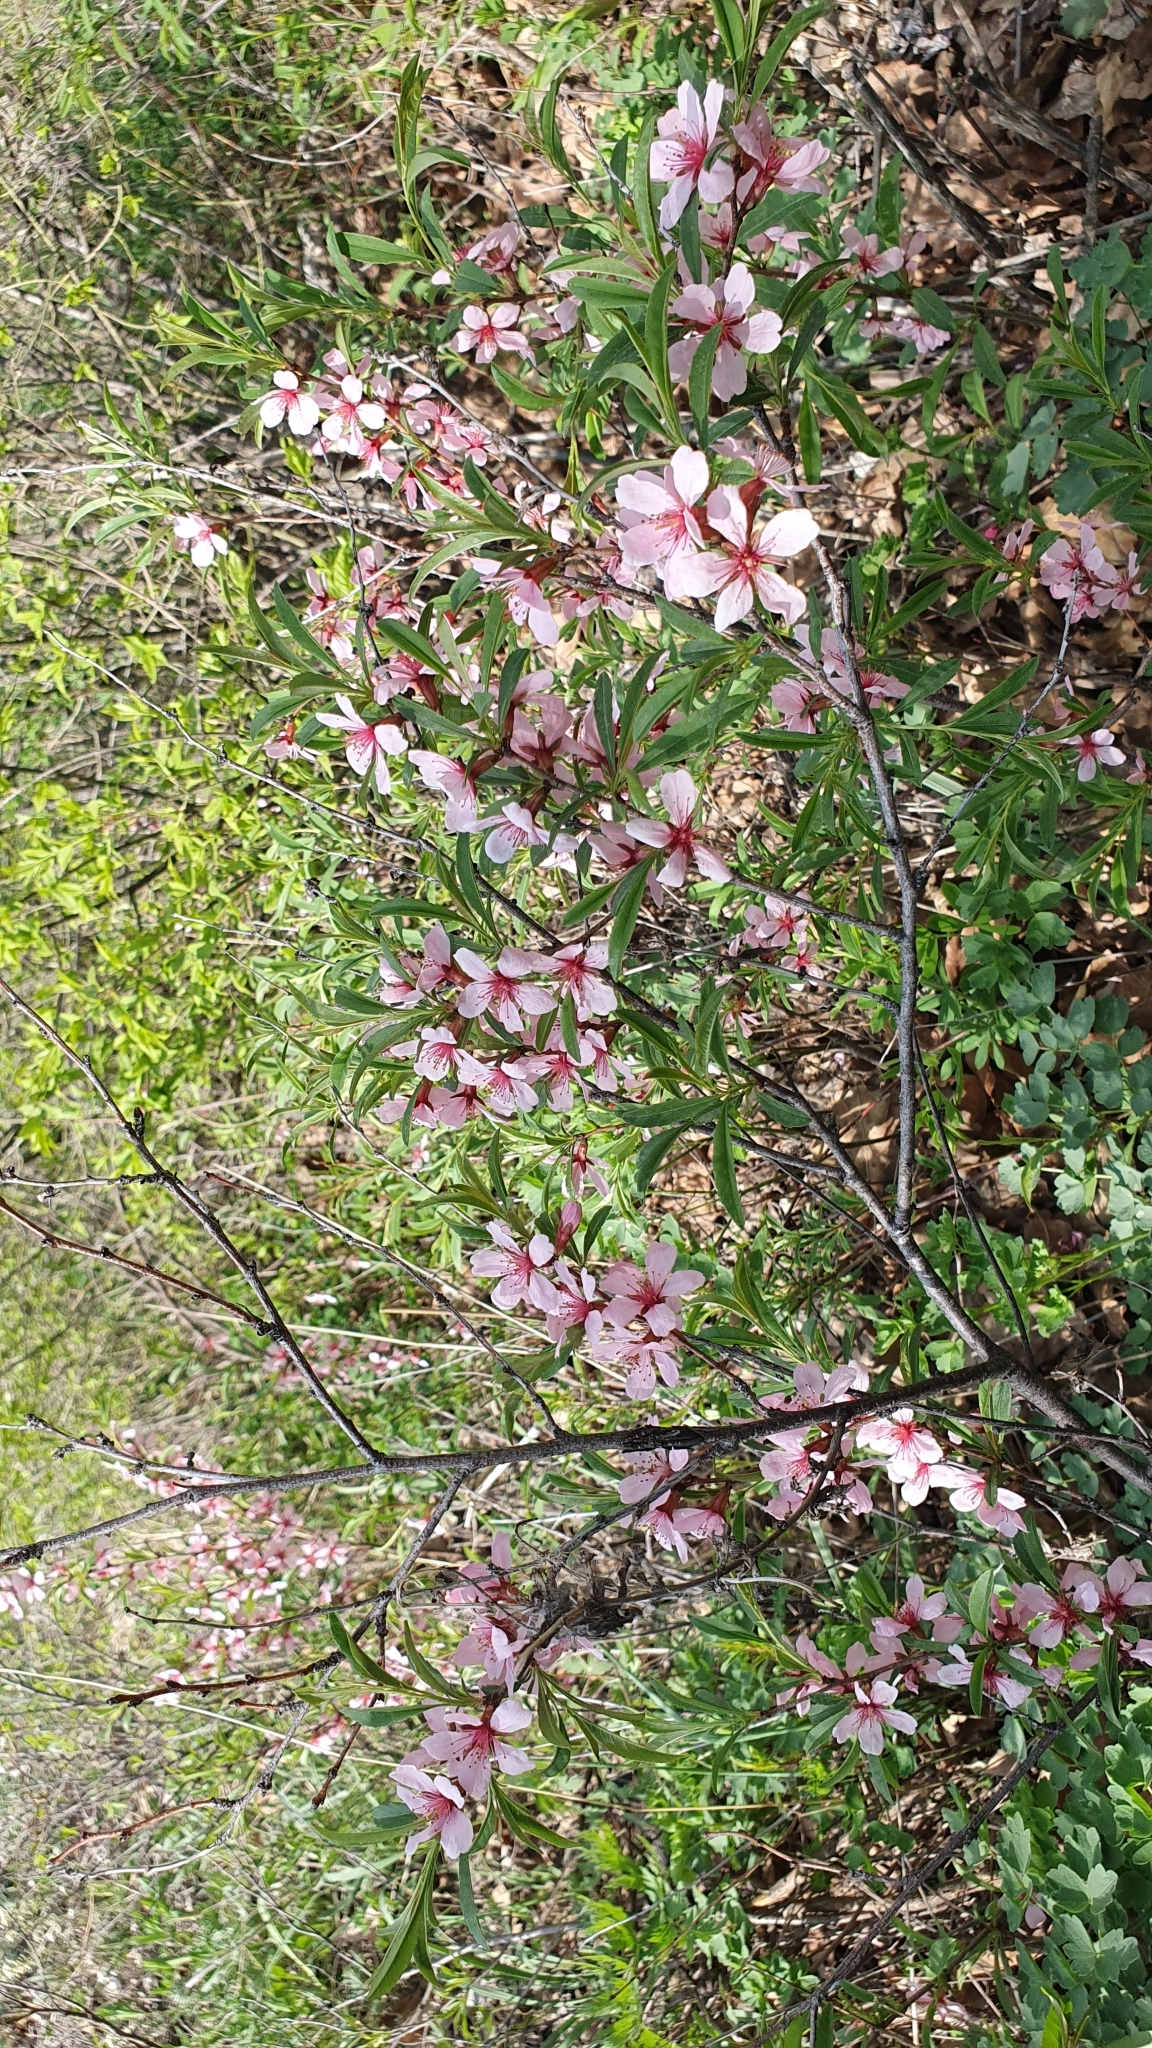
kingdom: Plantae
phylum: Tracheophyta
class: Magnoliopsida
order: Rosales
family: Rosaceae
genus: Prunus
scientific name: Prunus tenella
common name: Dwarf russian almond
